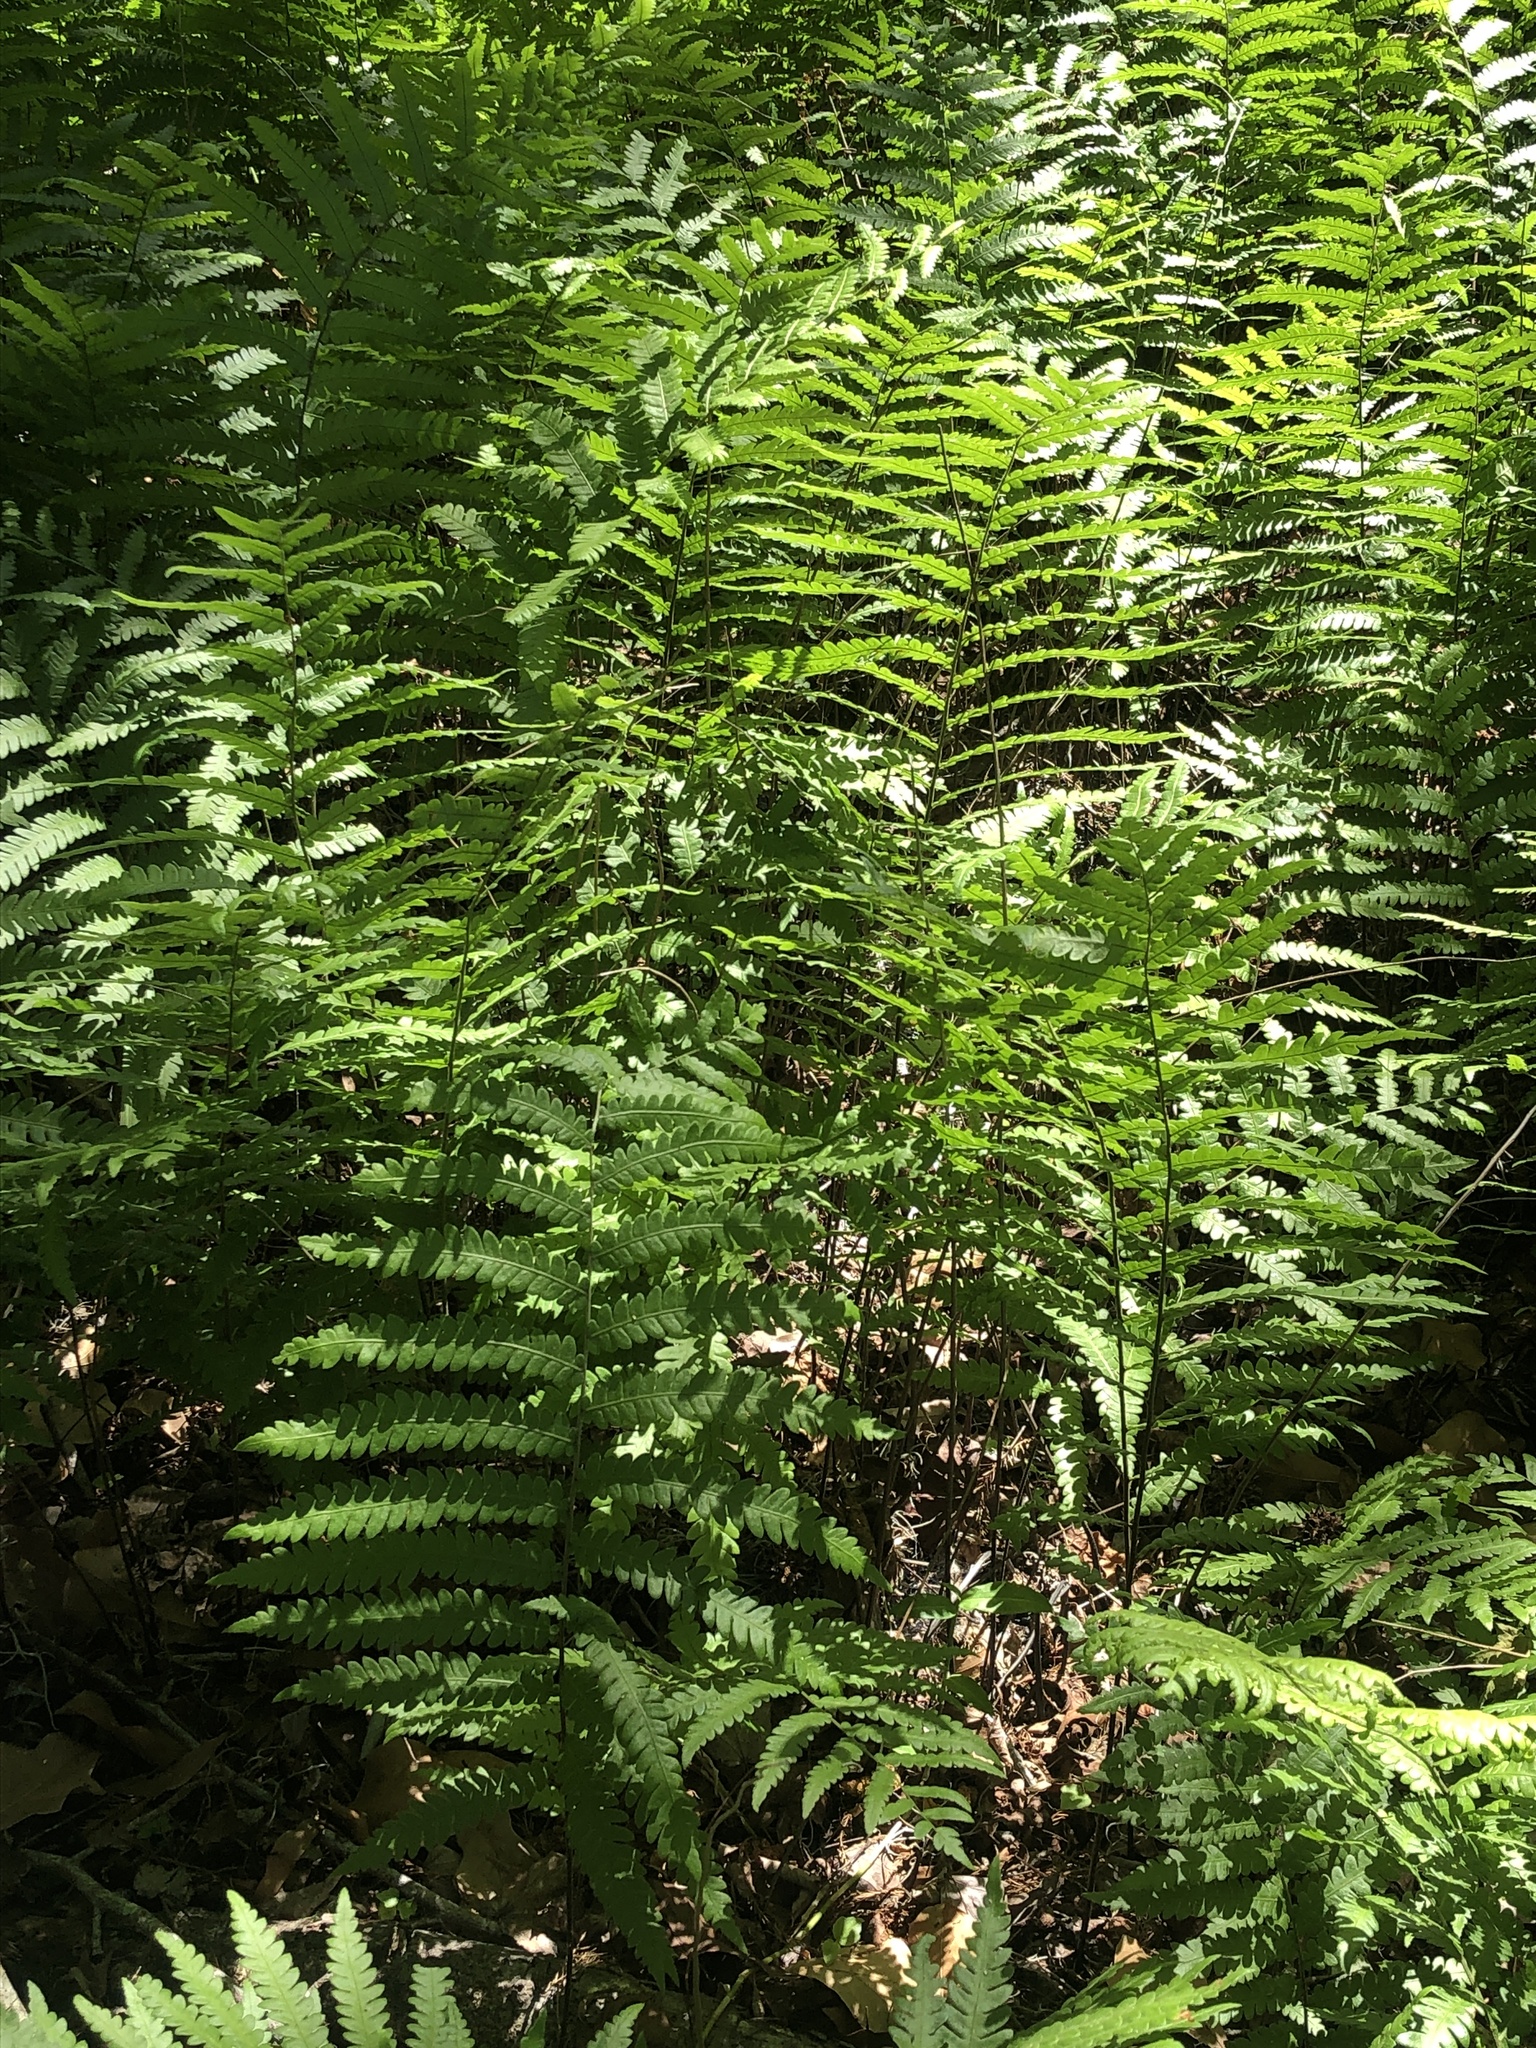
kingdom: Plantae
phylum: Tracheophyta
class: Polypodiopsida
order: Polypodiales
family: Blechnaceae
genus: Anchistea
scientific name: Anchistea virginica
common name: Virginia chain fern
